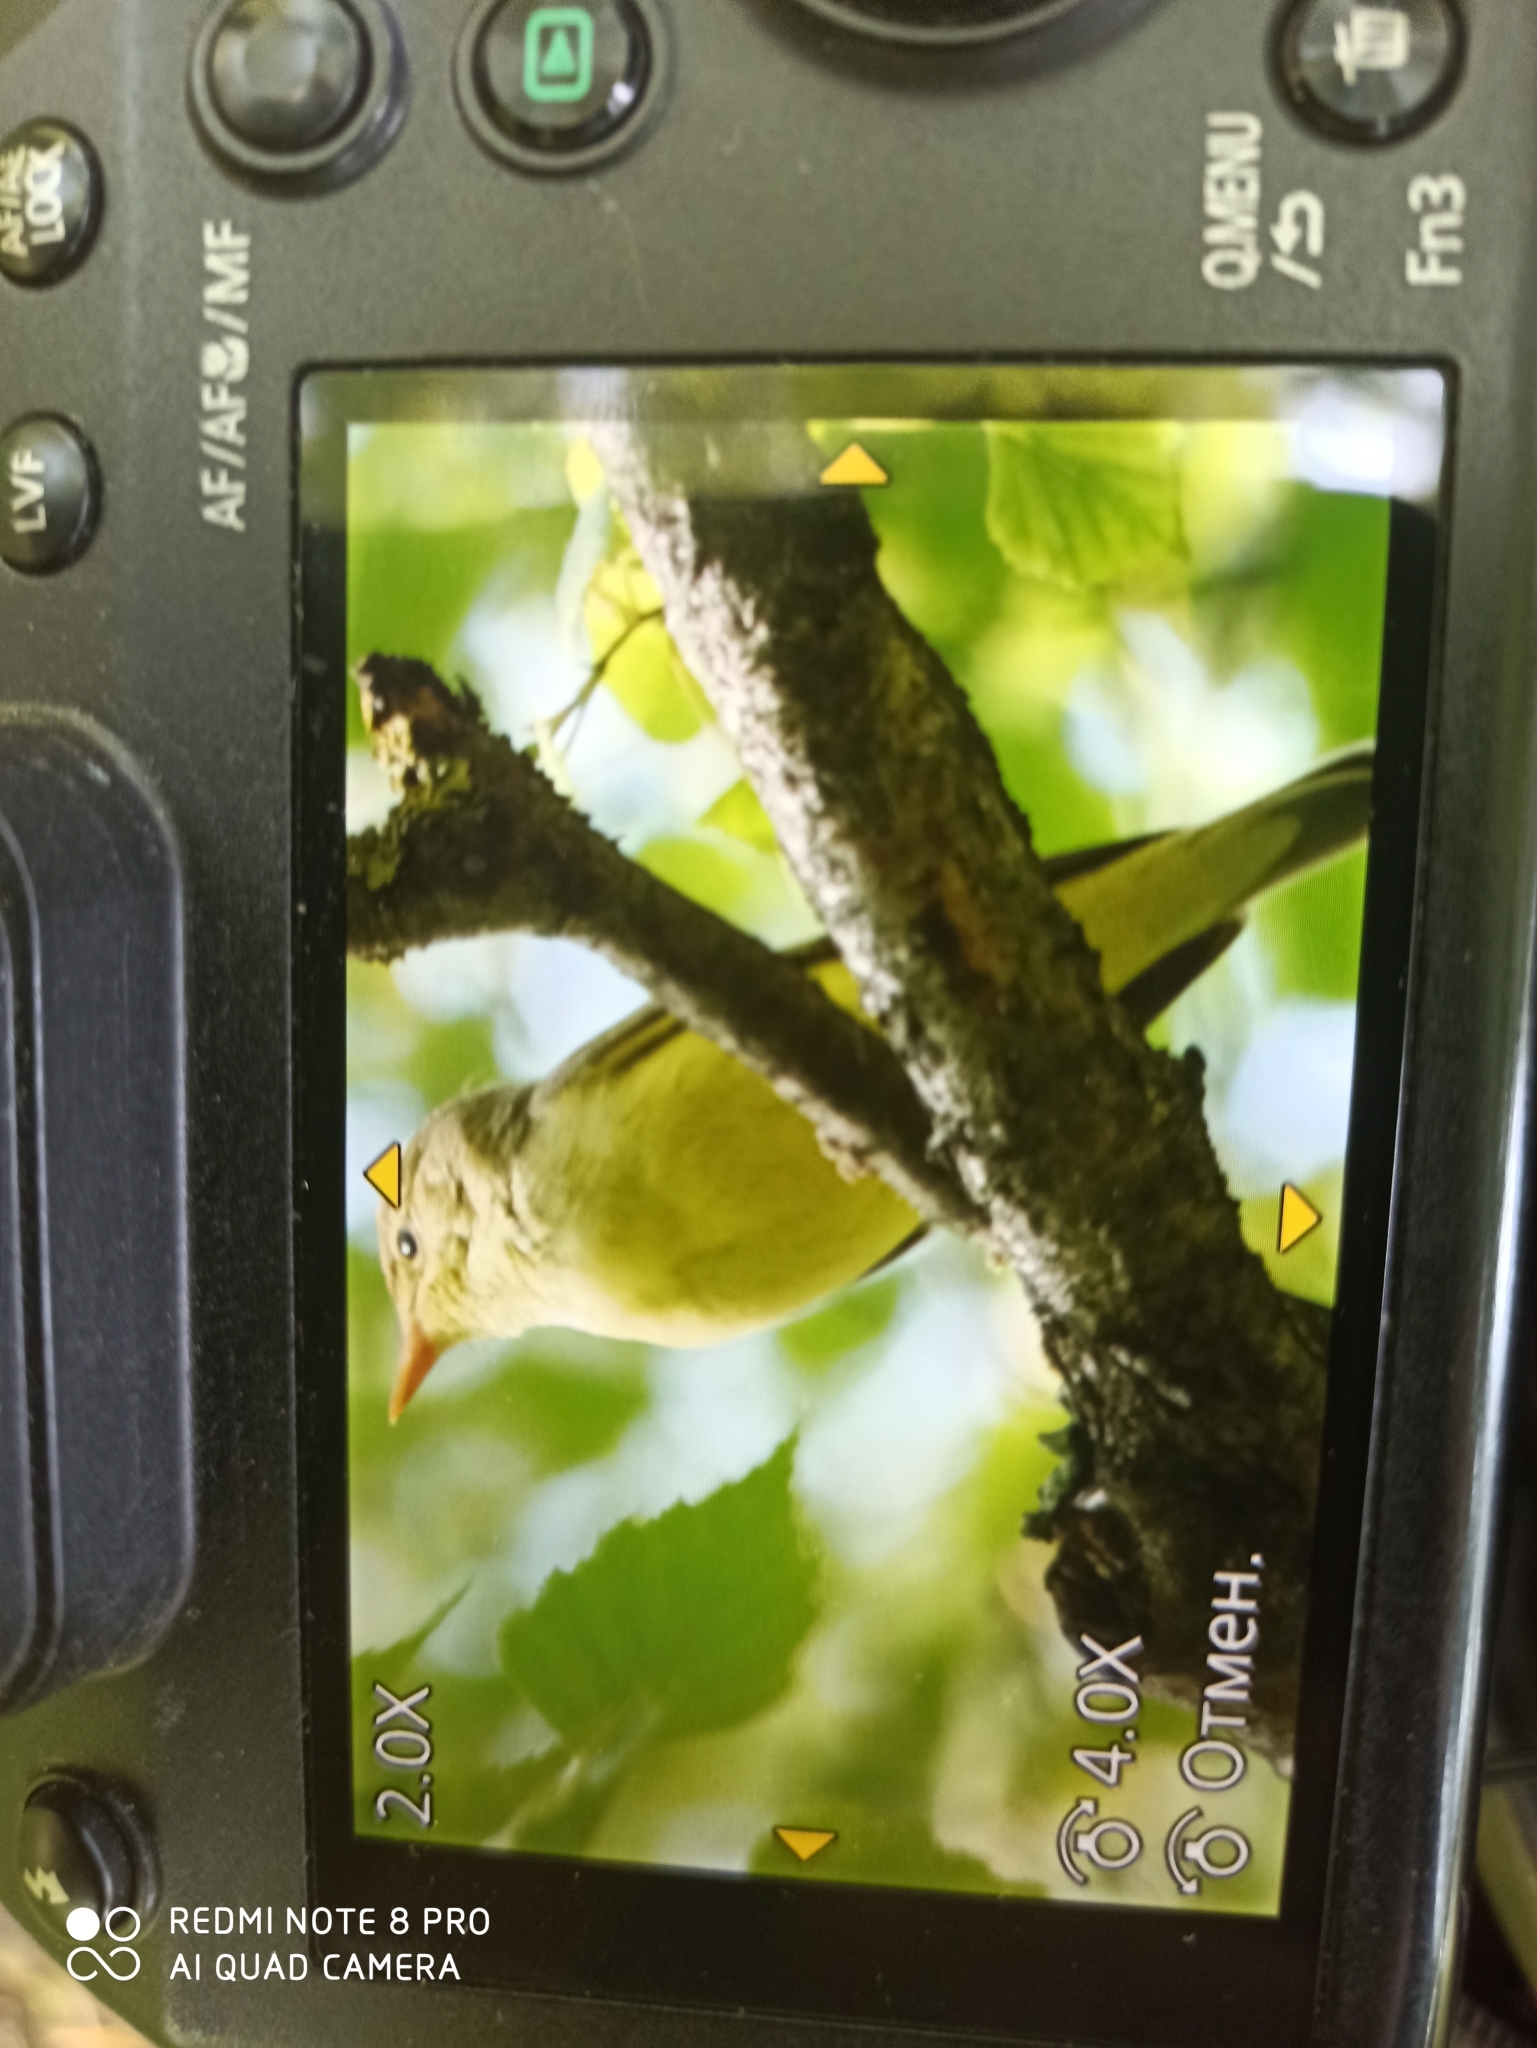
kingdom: Animalia
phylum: Chordata
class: Aves
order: Passeriformes
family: Acrocephalidae
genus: Hippolais
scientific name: Hippolais icterina
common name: Icterine warbler
